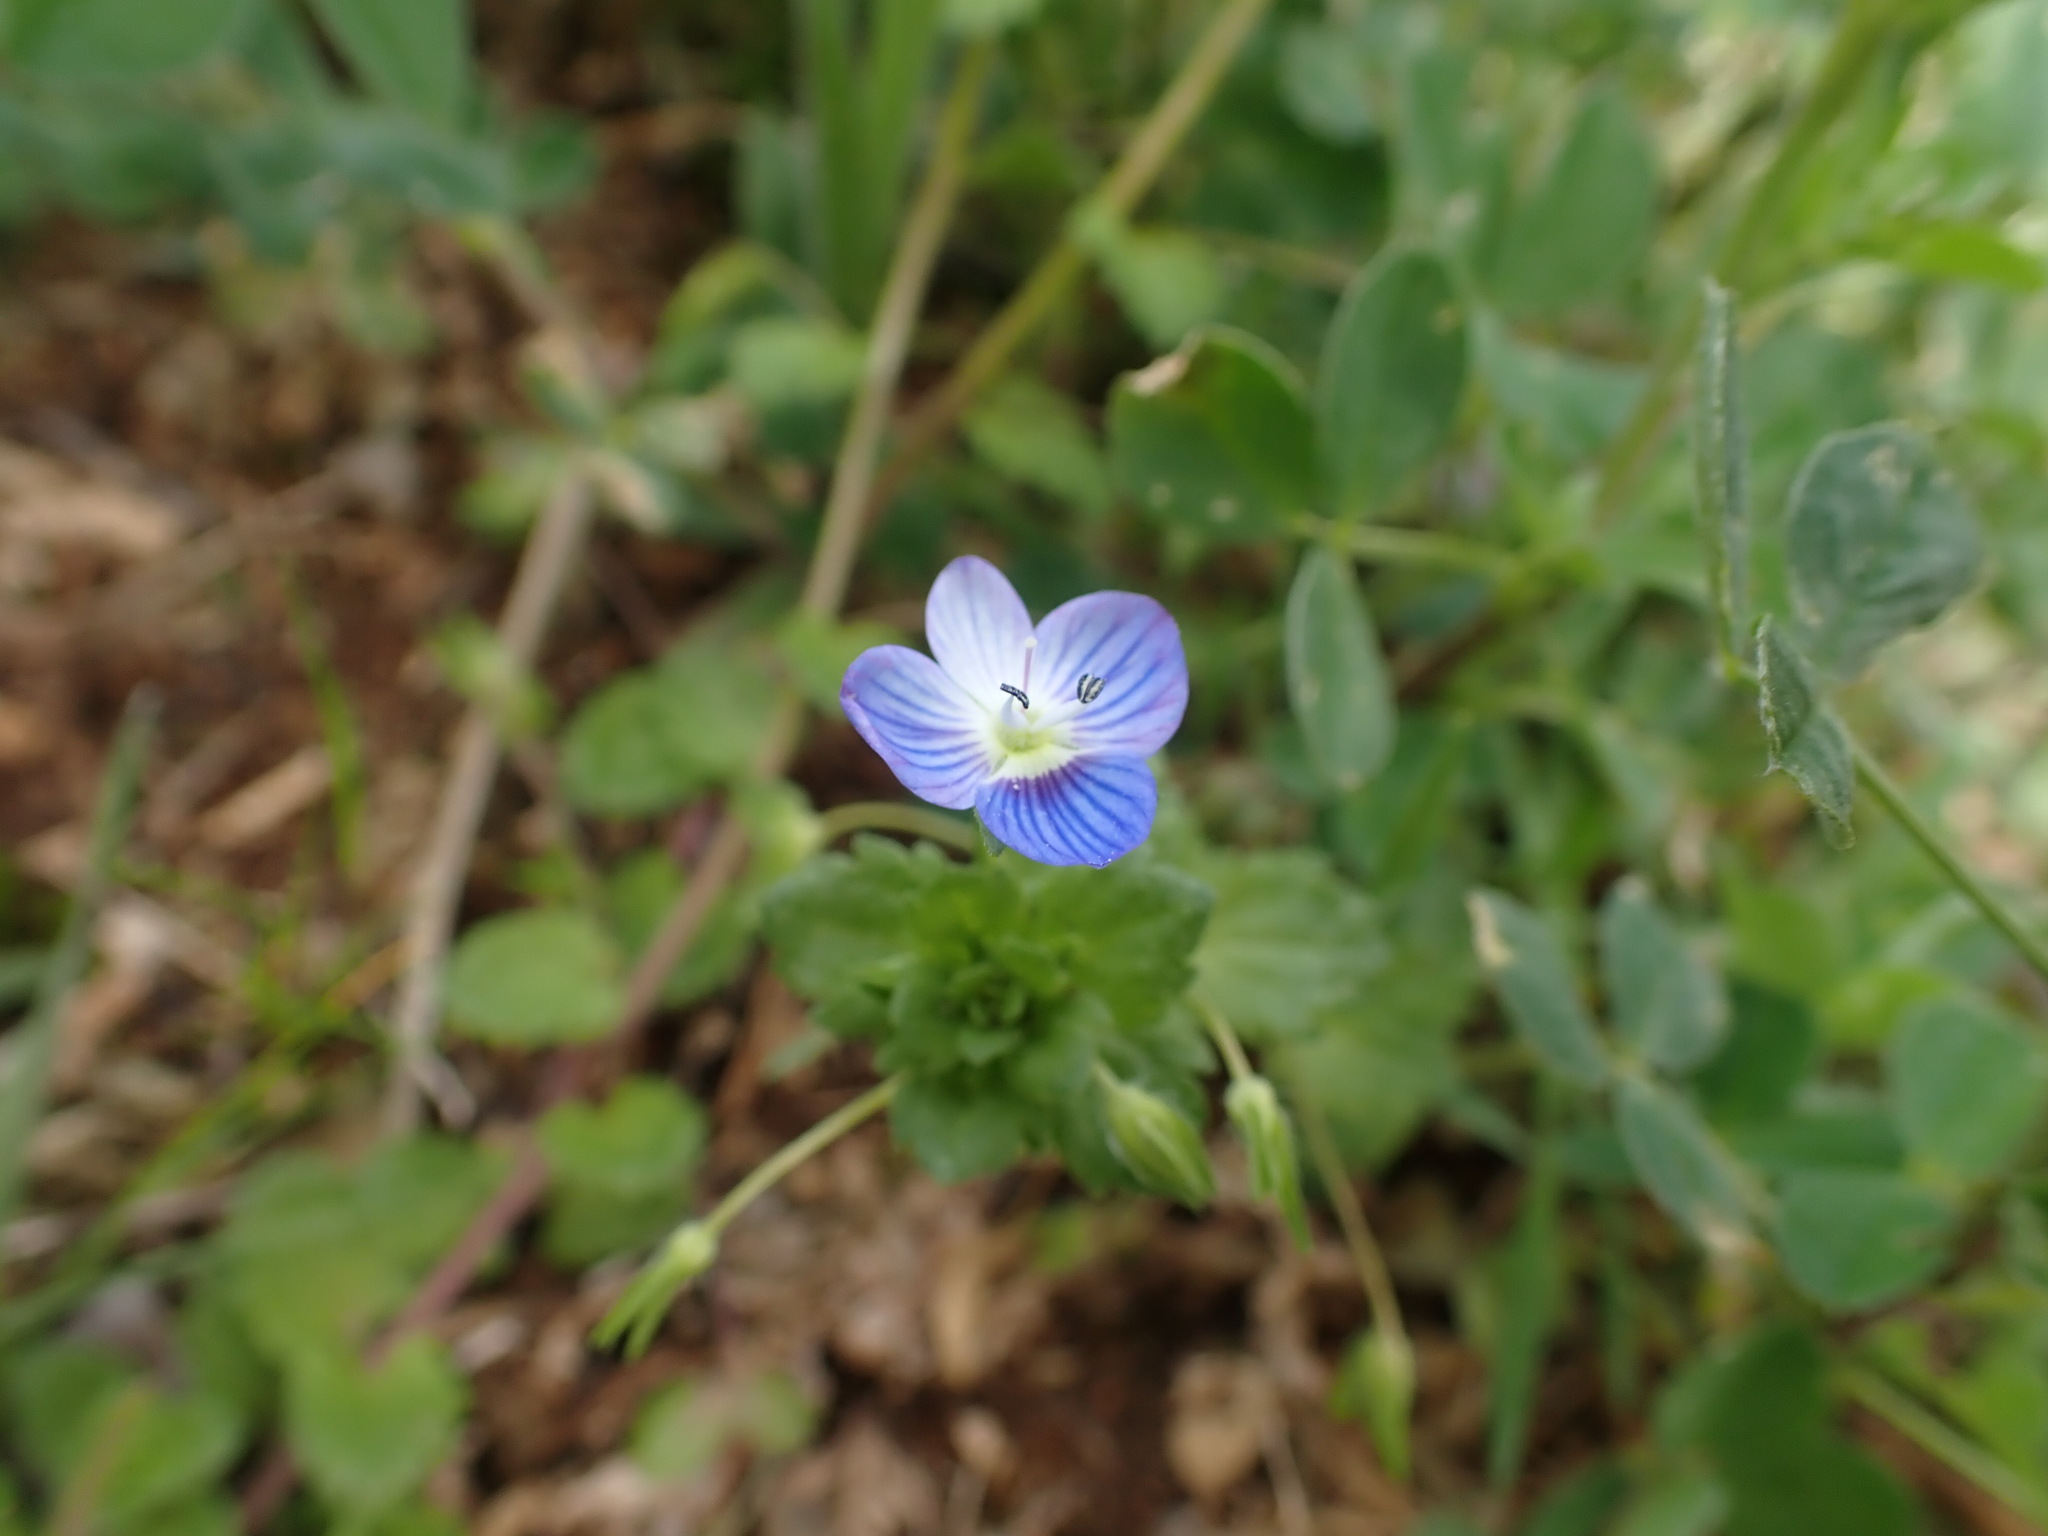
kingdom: Plantae
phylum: Tracheophyta
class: Magnoliopsida
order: Lamiales
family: Plantaginaceae
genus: Veronica
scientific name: Veronica persica
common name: Common field-speedwell
